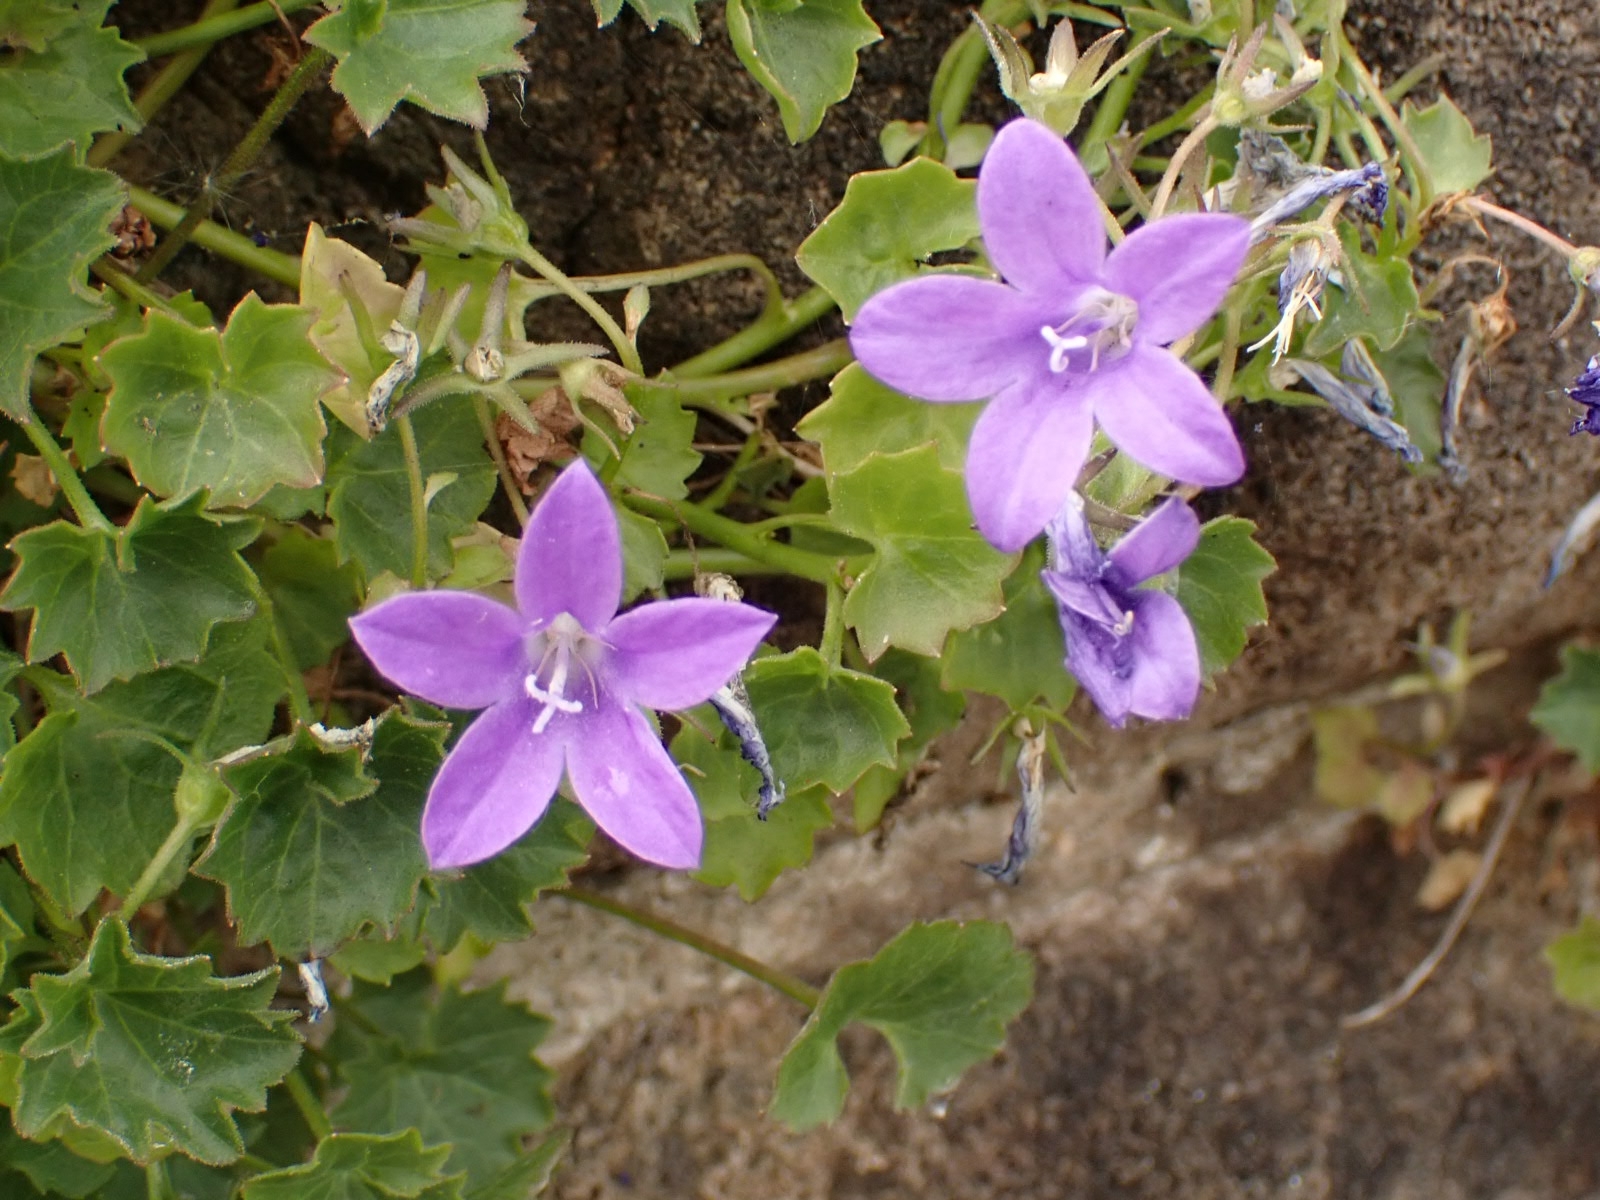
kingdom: Plantae
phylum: Tracheophyta
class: Magnoliopsida
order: Asterales
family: Campanulaceae
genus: Campanula
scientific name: Campanula portenschlagiana
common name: Adria bellflower
